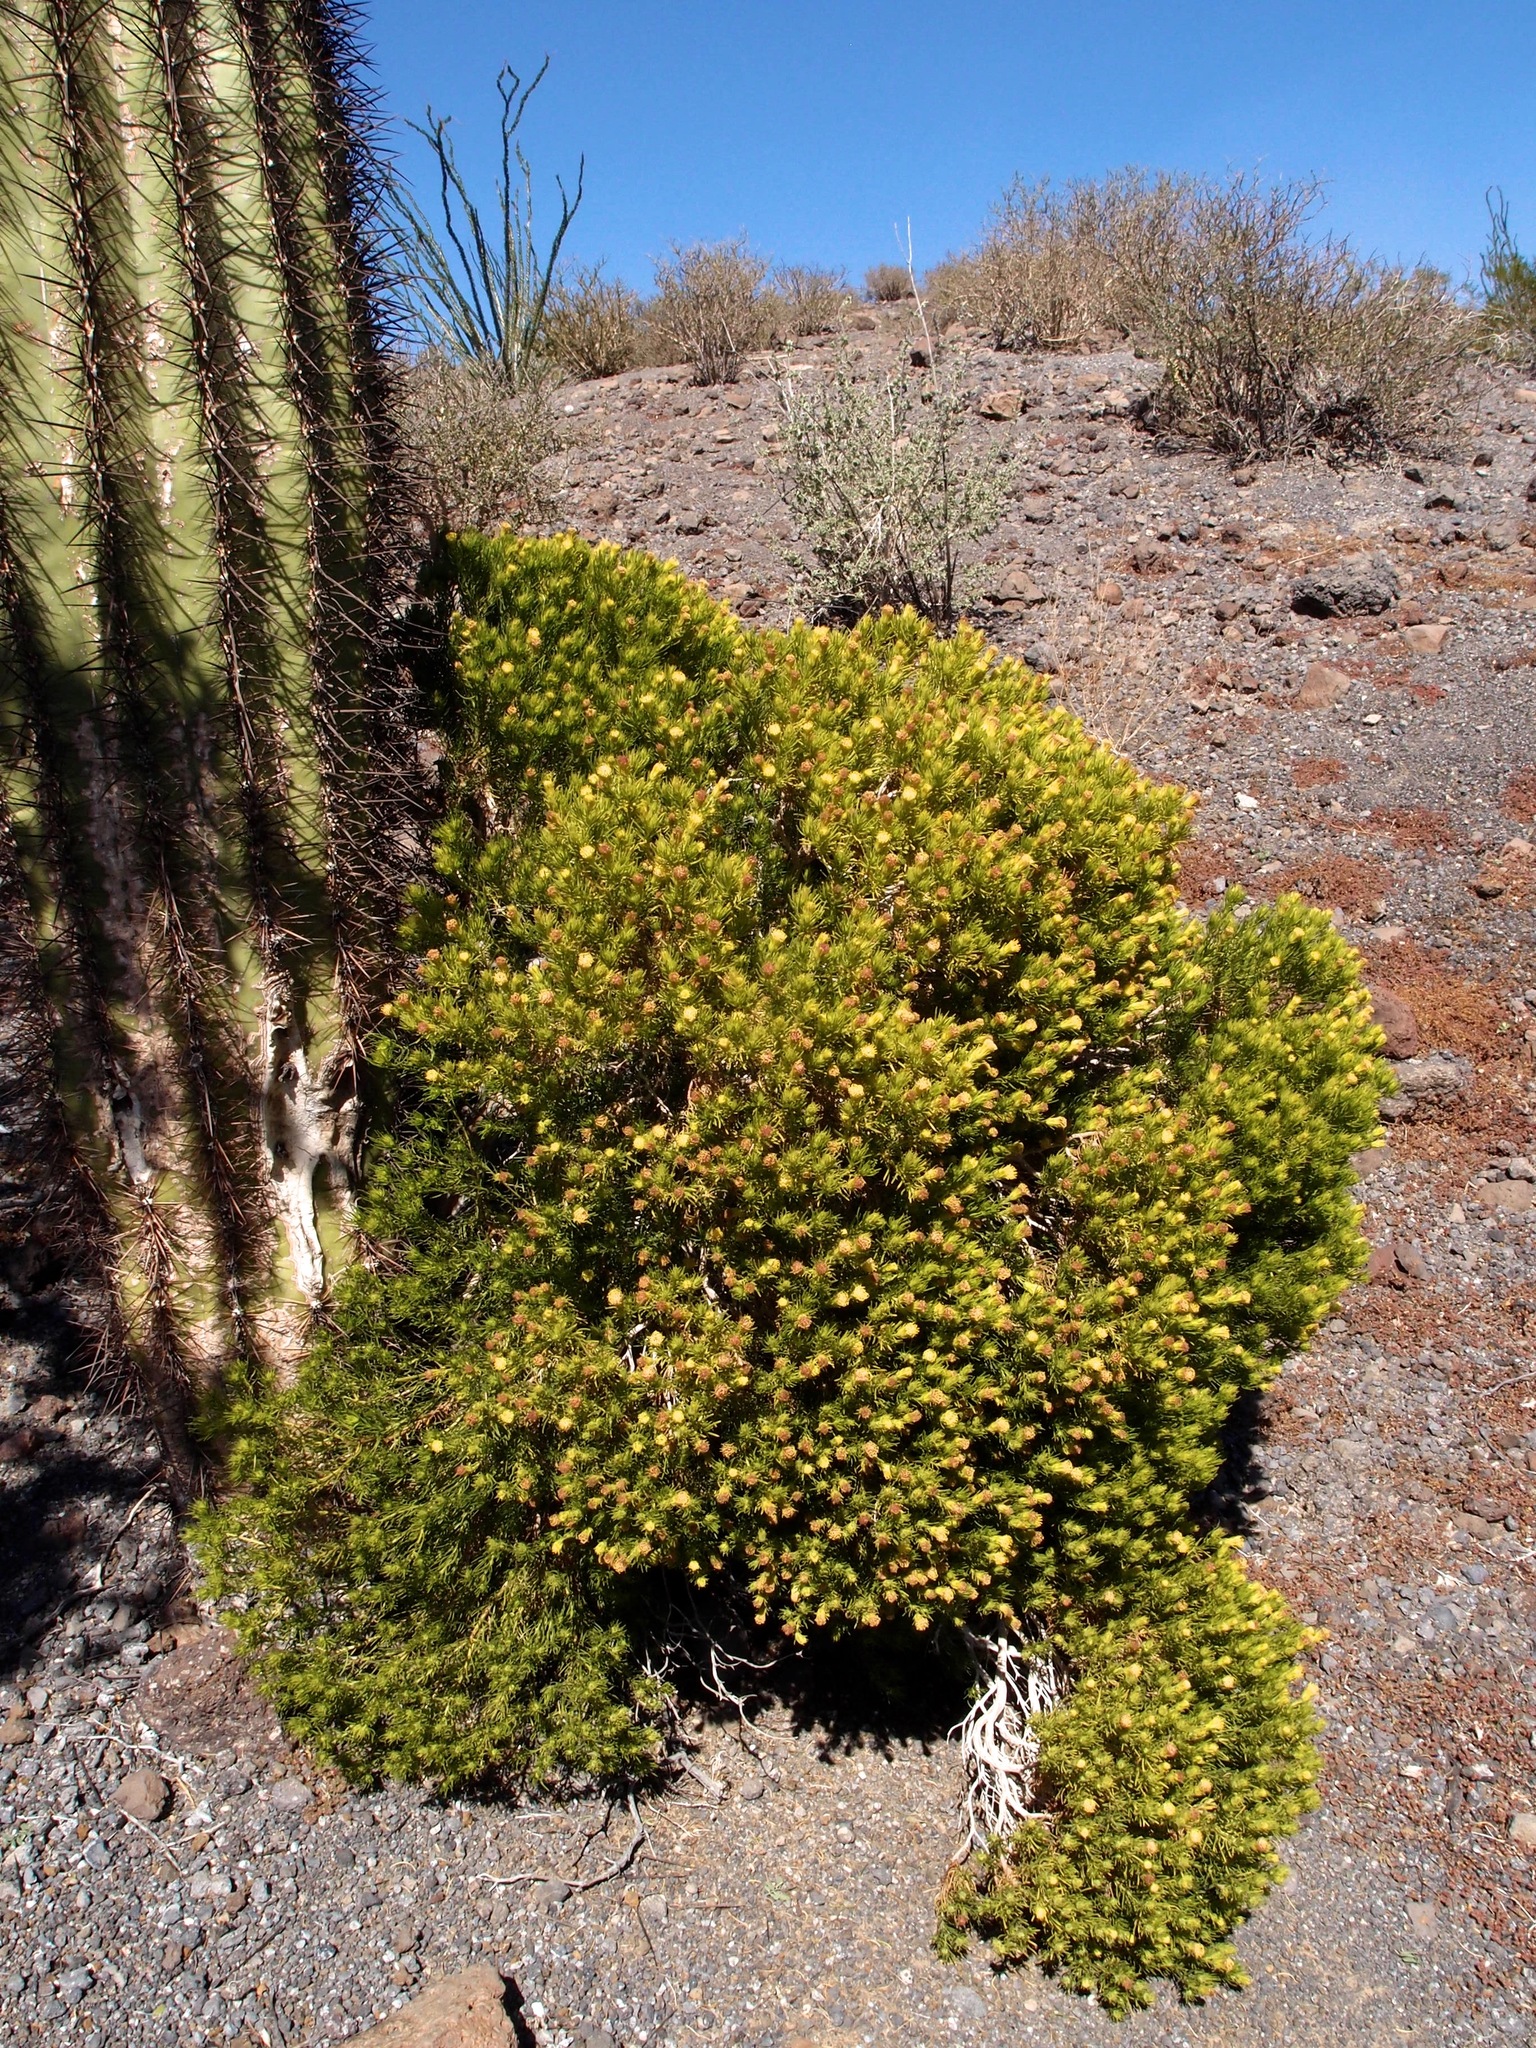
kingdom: Plantae
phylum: Tracheophyta
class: Magnoliopsida
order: Asterales
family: Asteraceae
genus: Peucephyllum
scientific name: Peucephyllum schottii
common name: Pygmy-cedar
